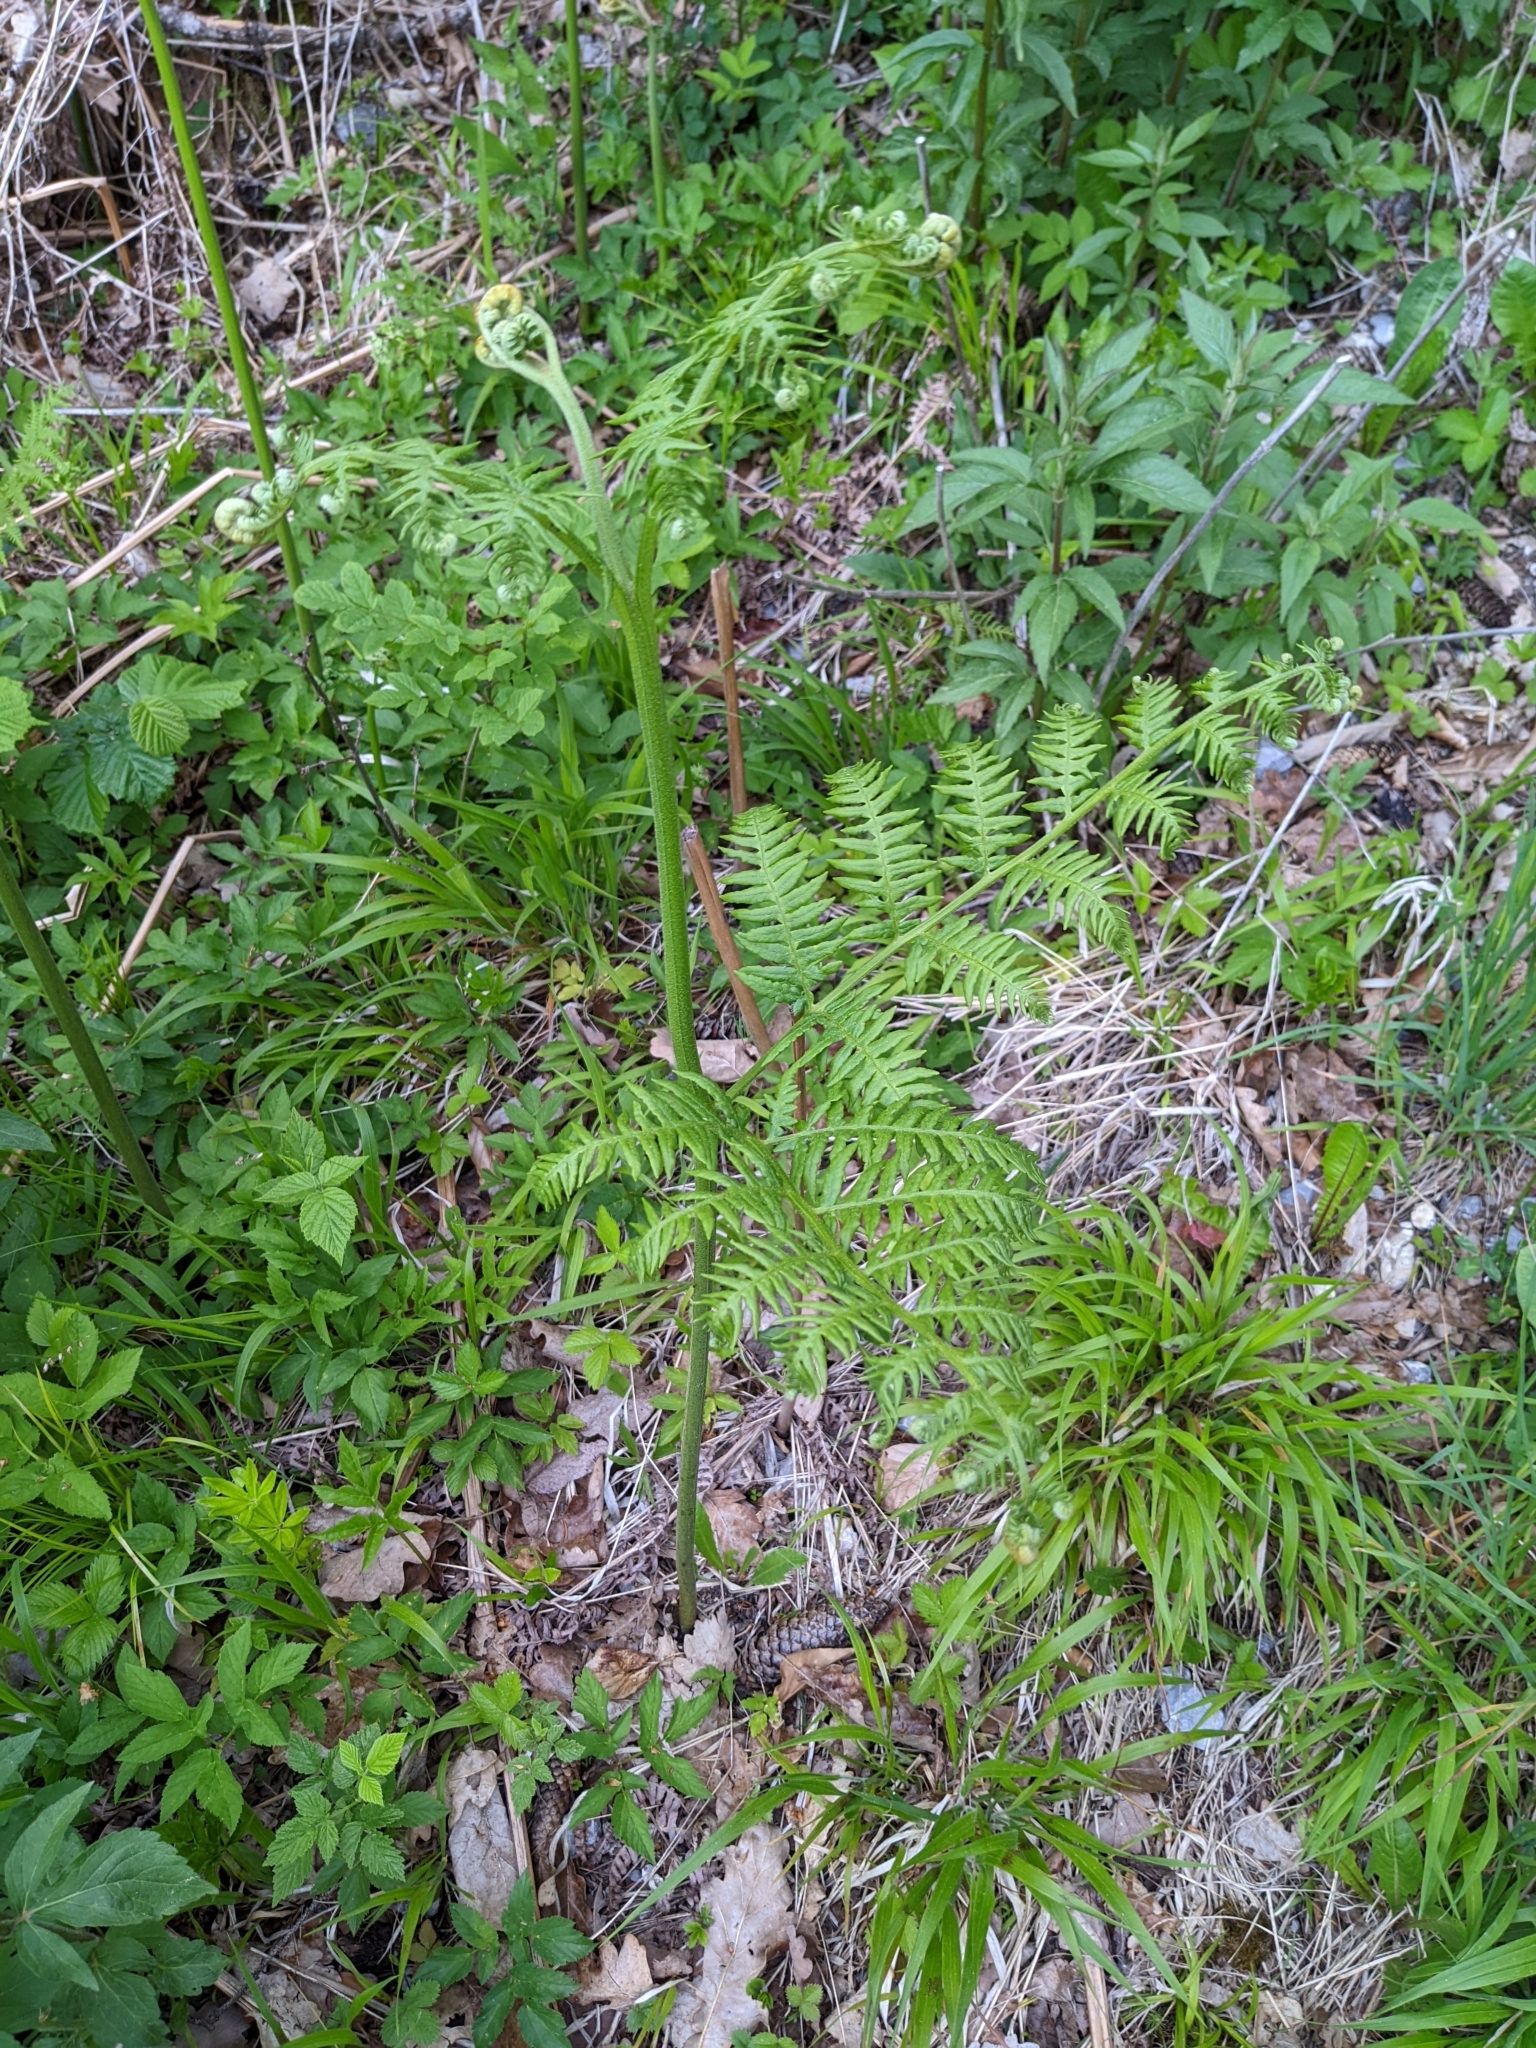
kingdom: Plantae
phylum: Tracheophyta
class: Polypodiopsida
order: Polypodiales
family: Dennstaedtiaceae
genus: Pteridium
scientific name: Pteridium aquilinum
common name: Bracken
